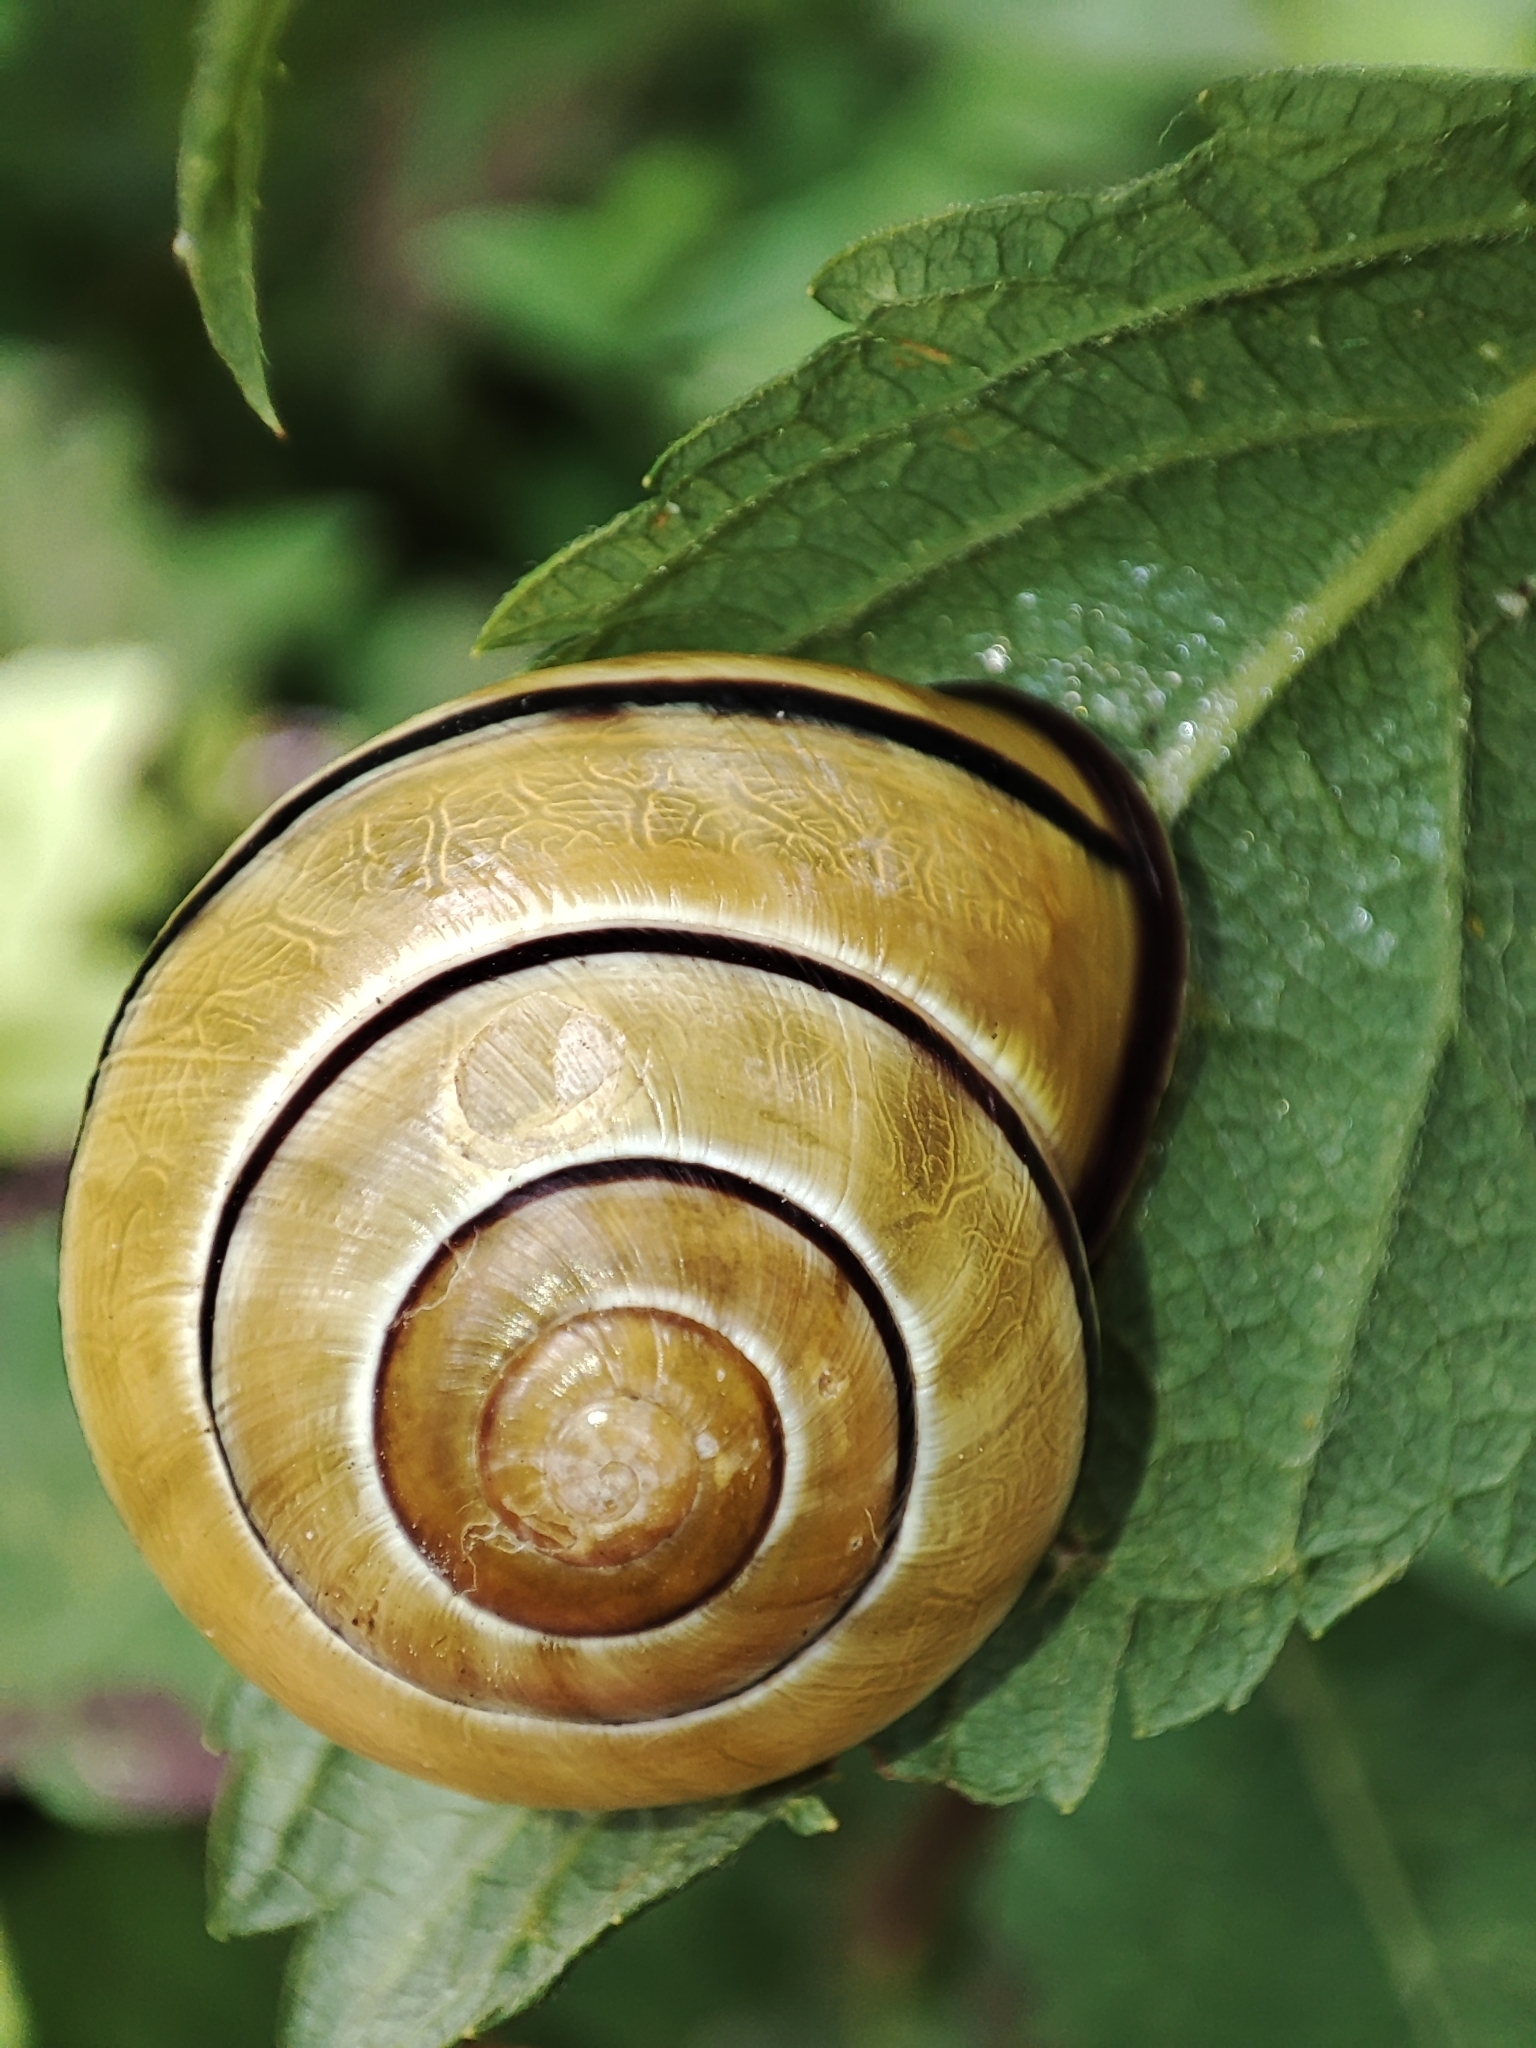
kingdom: Animalia
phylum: Mollusca
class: Gastropoda
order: Stylommatophora
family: Helicidae
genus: Cepaea
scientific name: Cepaea nemoralis
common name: Grovesnail
